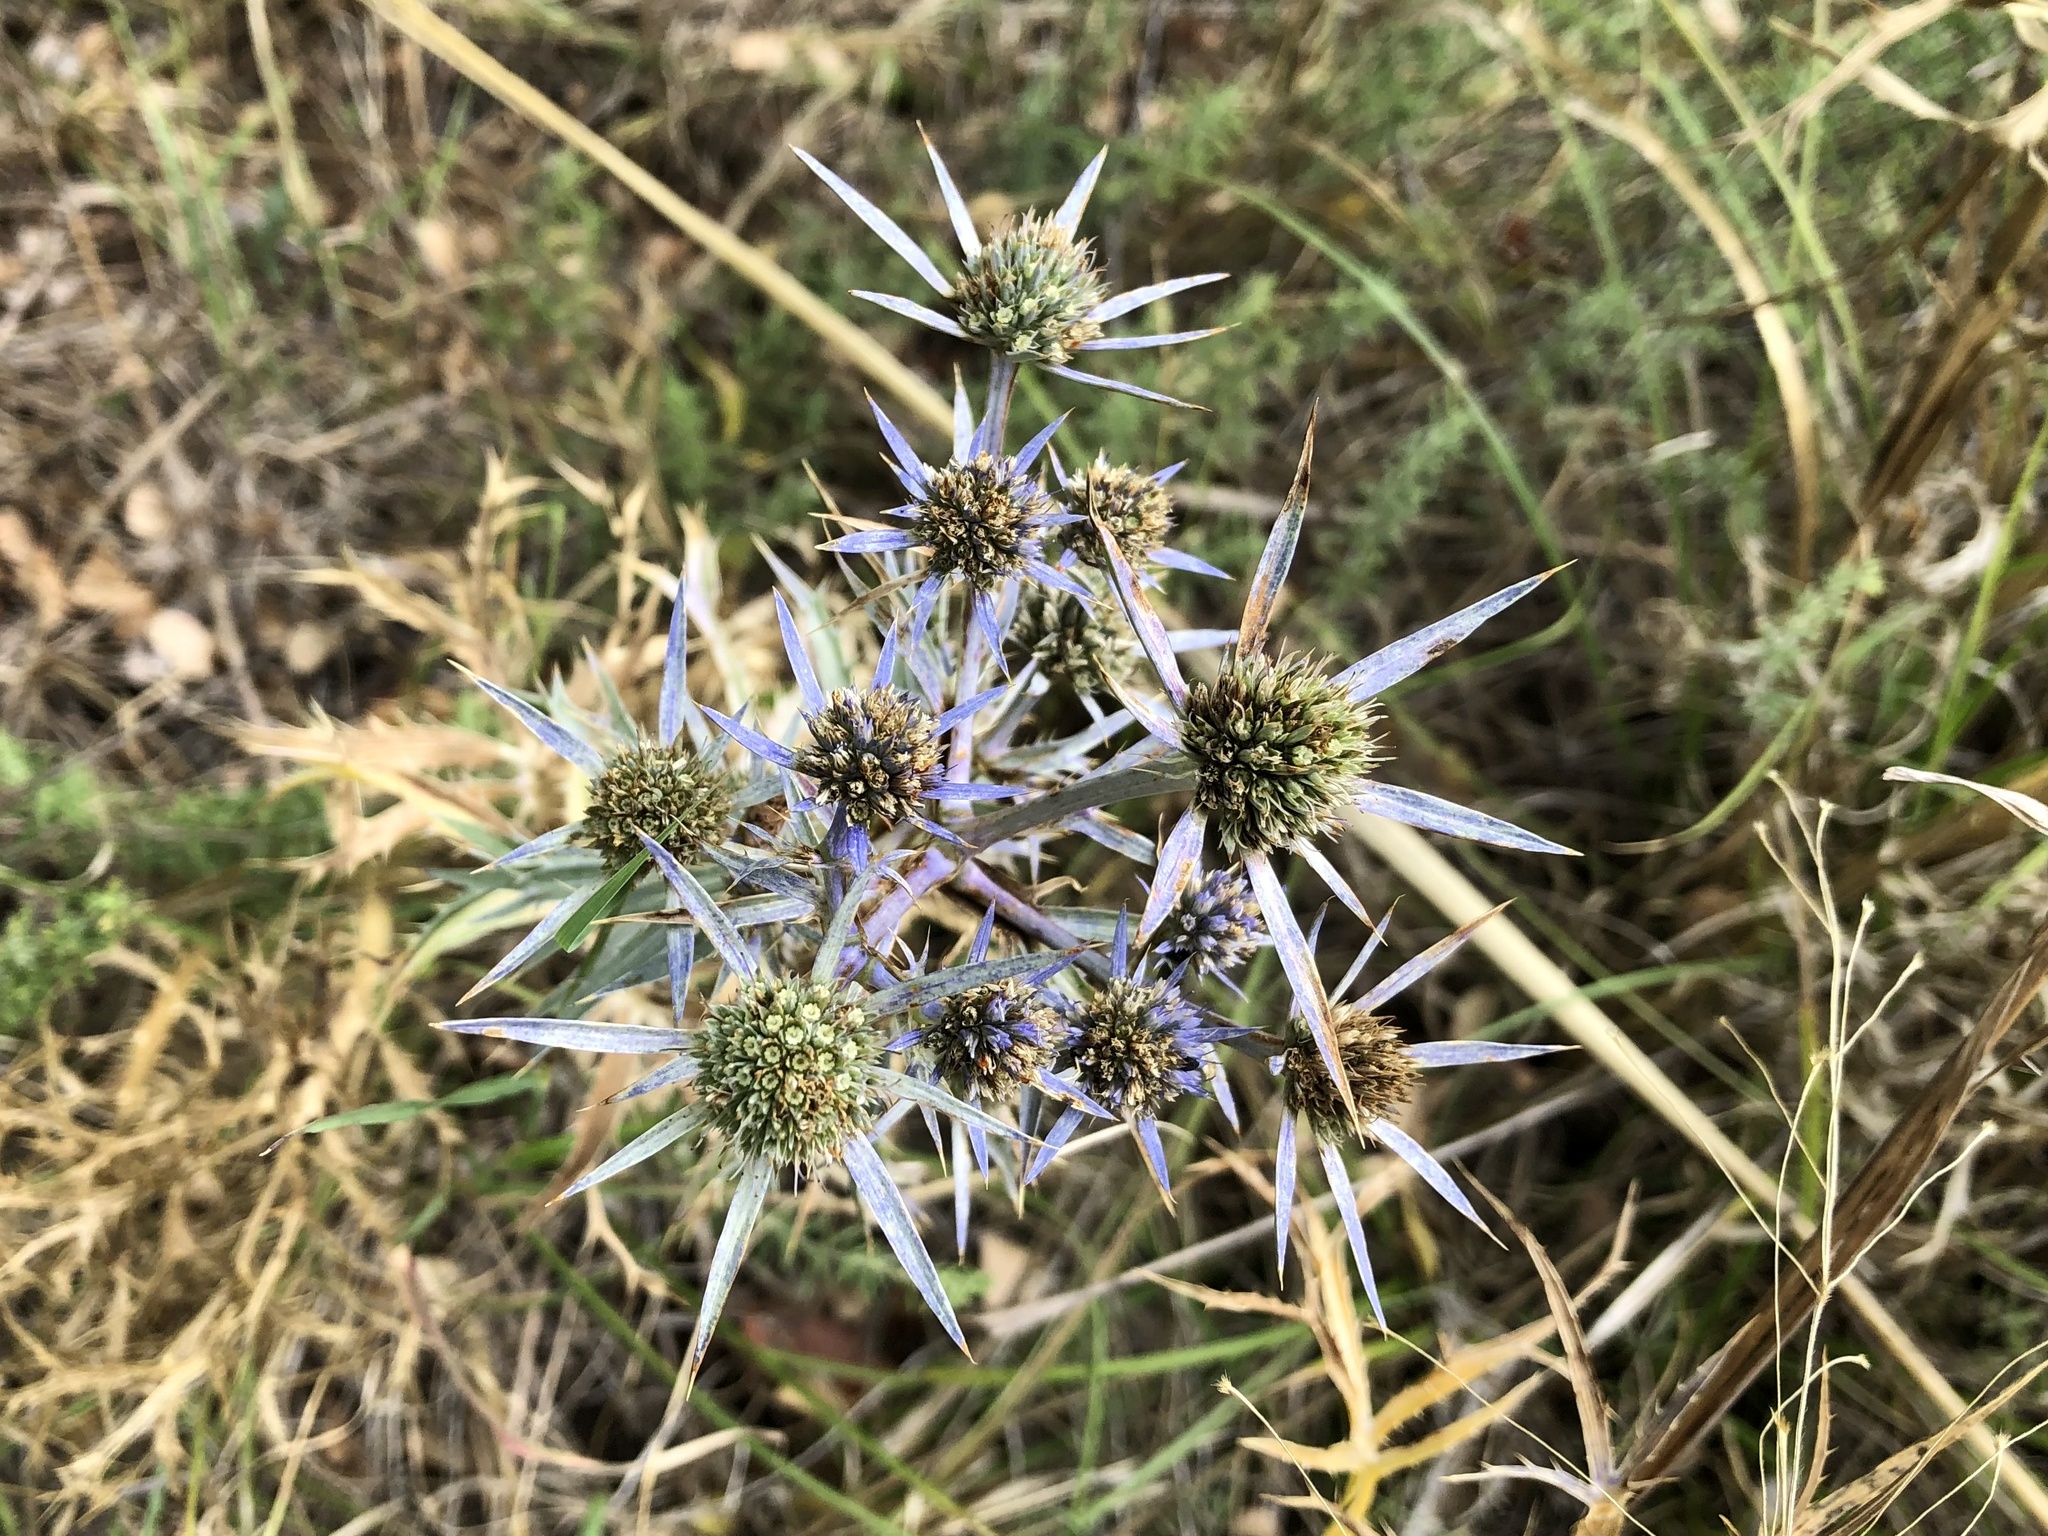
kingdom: Plantae
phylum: Tracheophyta
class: Magnoliopsida
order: Apiales
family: Apiaceae
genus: Eryngium
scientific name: Eryngium amethystinum
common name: Amethyst eryngo
